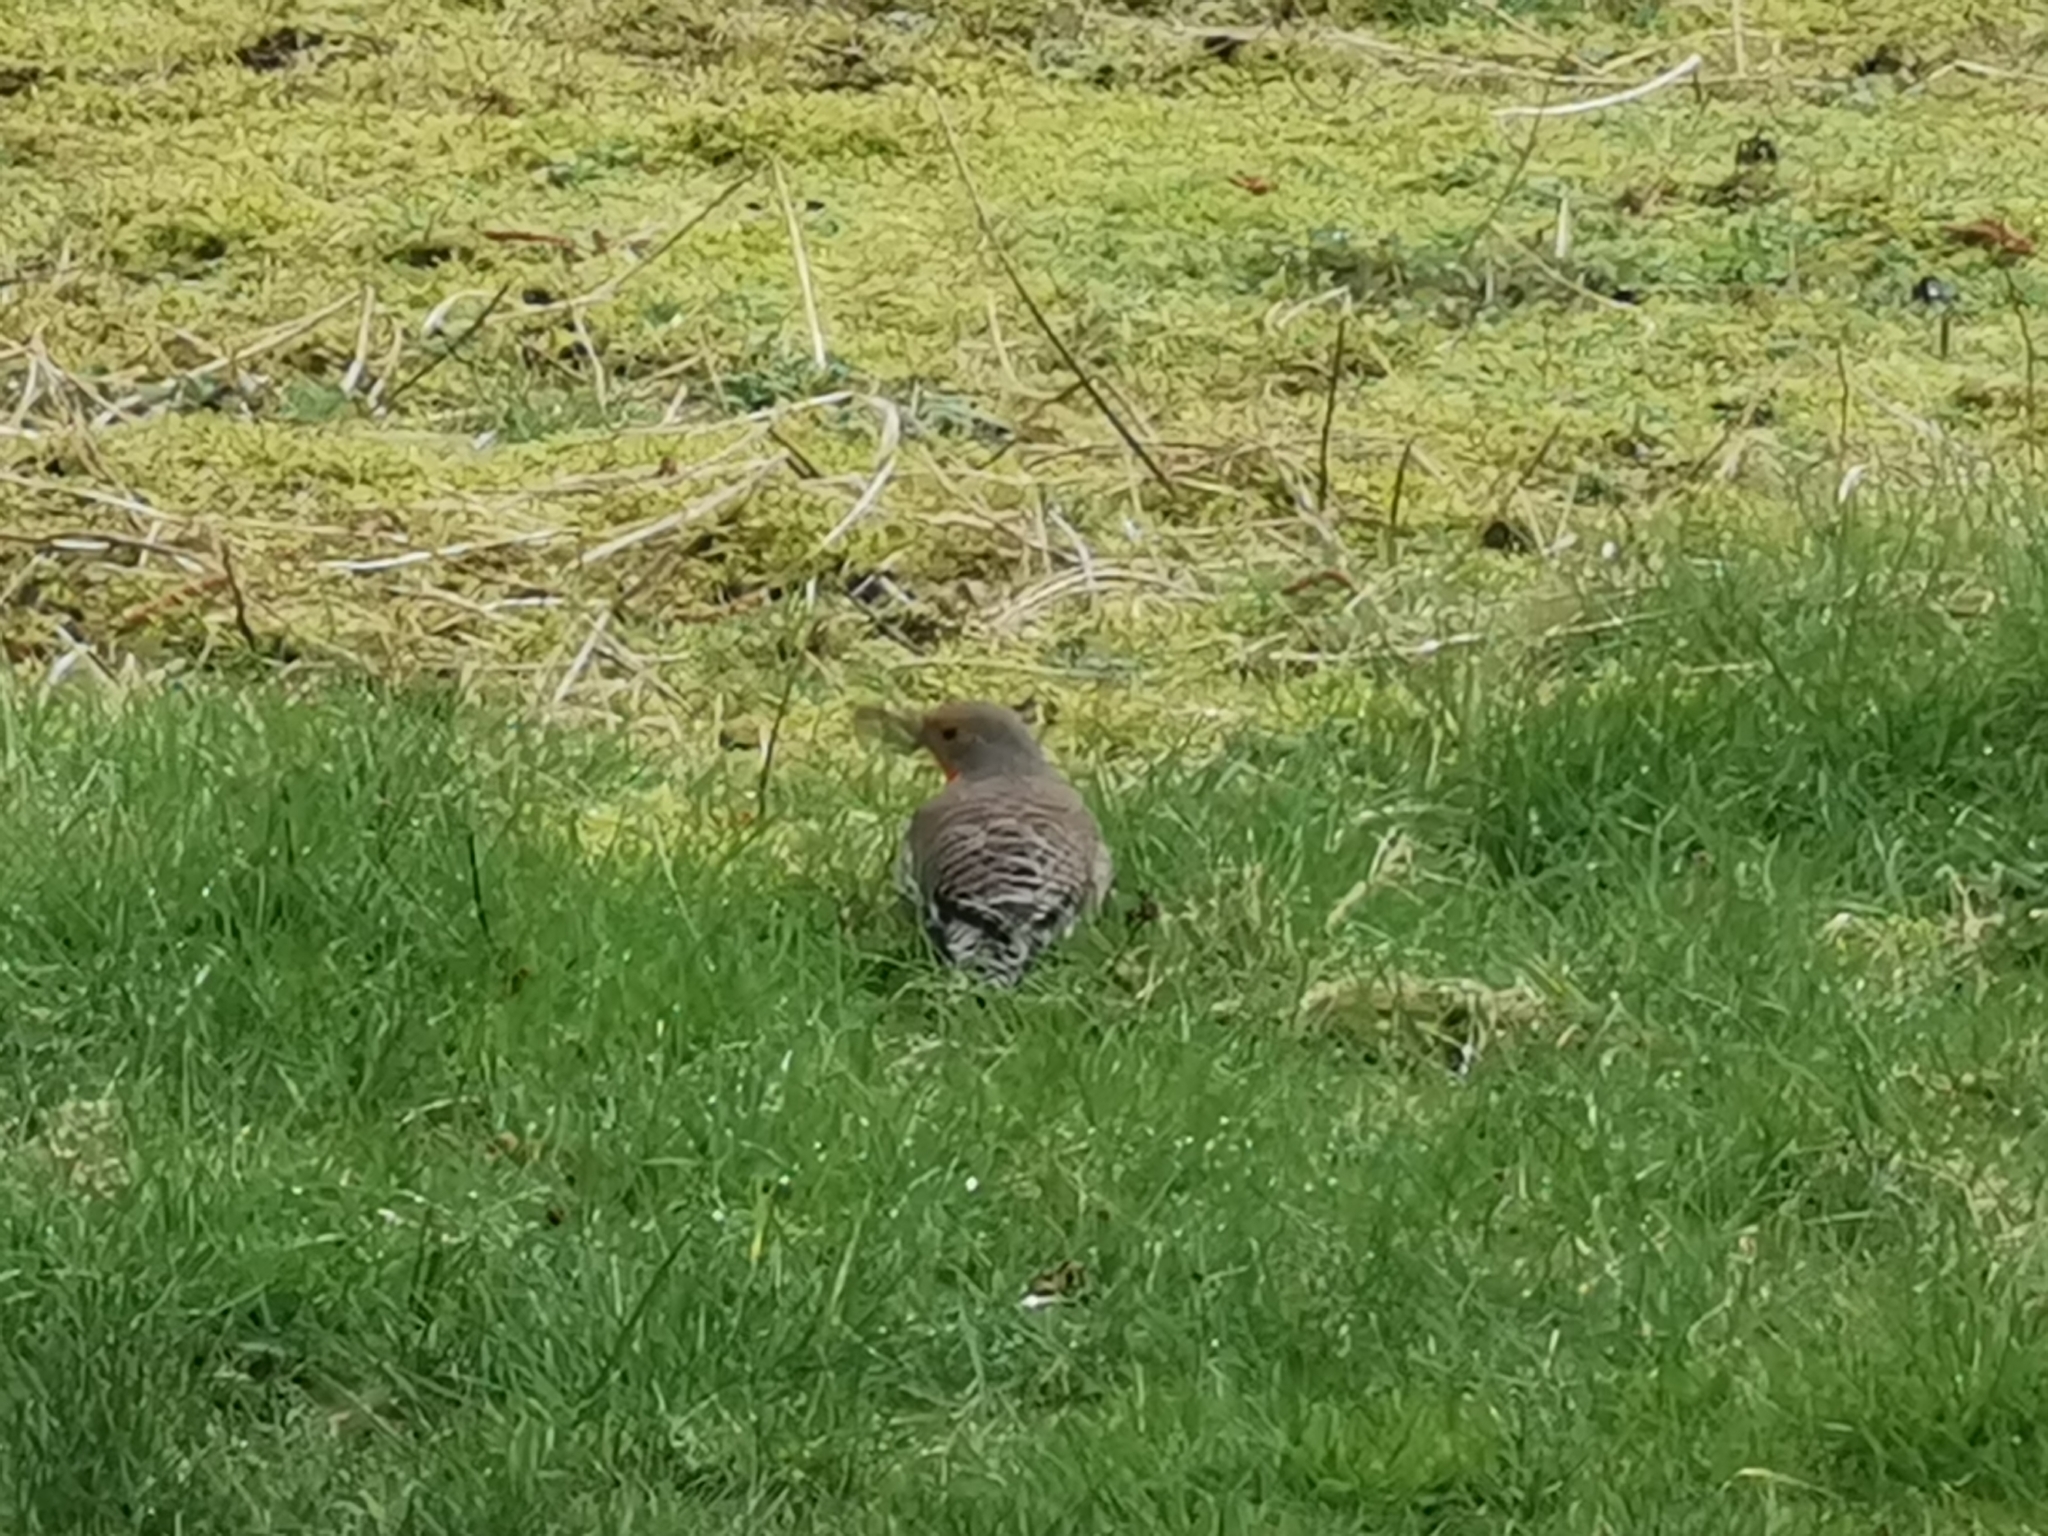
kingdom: Animalia
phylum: Chordata
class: Aves
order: Piciformes
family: Picidae
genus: Colaptes
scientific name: Colaptes auratus
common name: Northern flicker
